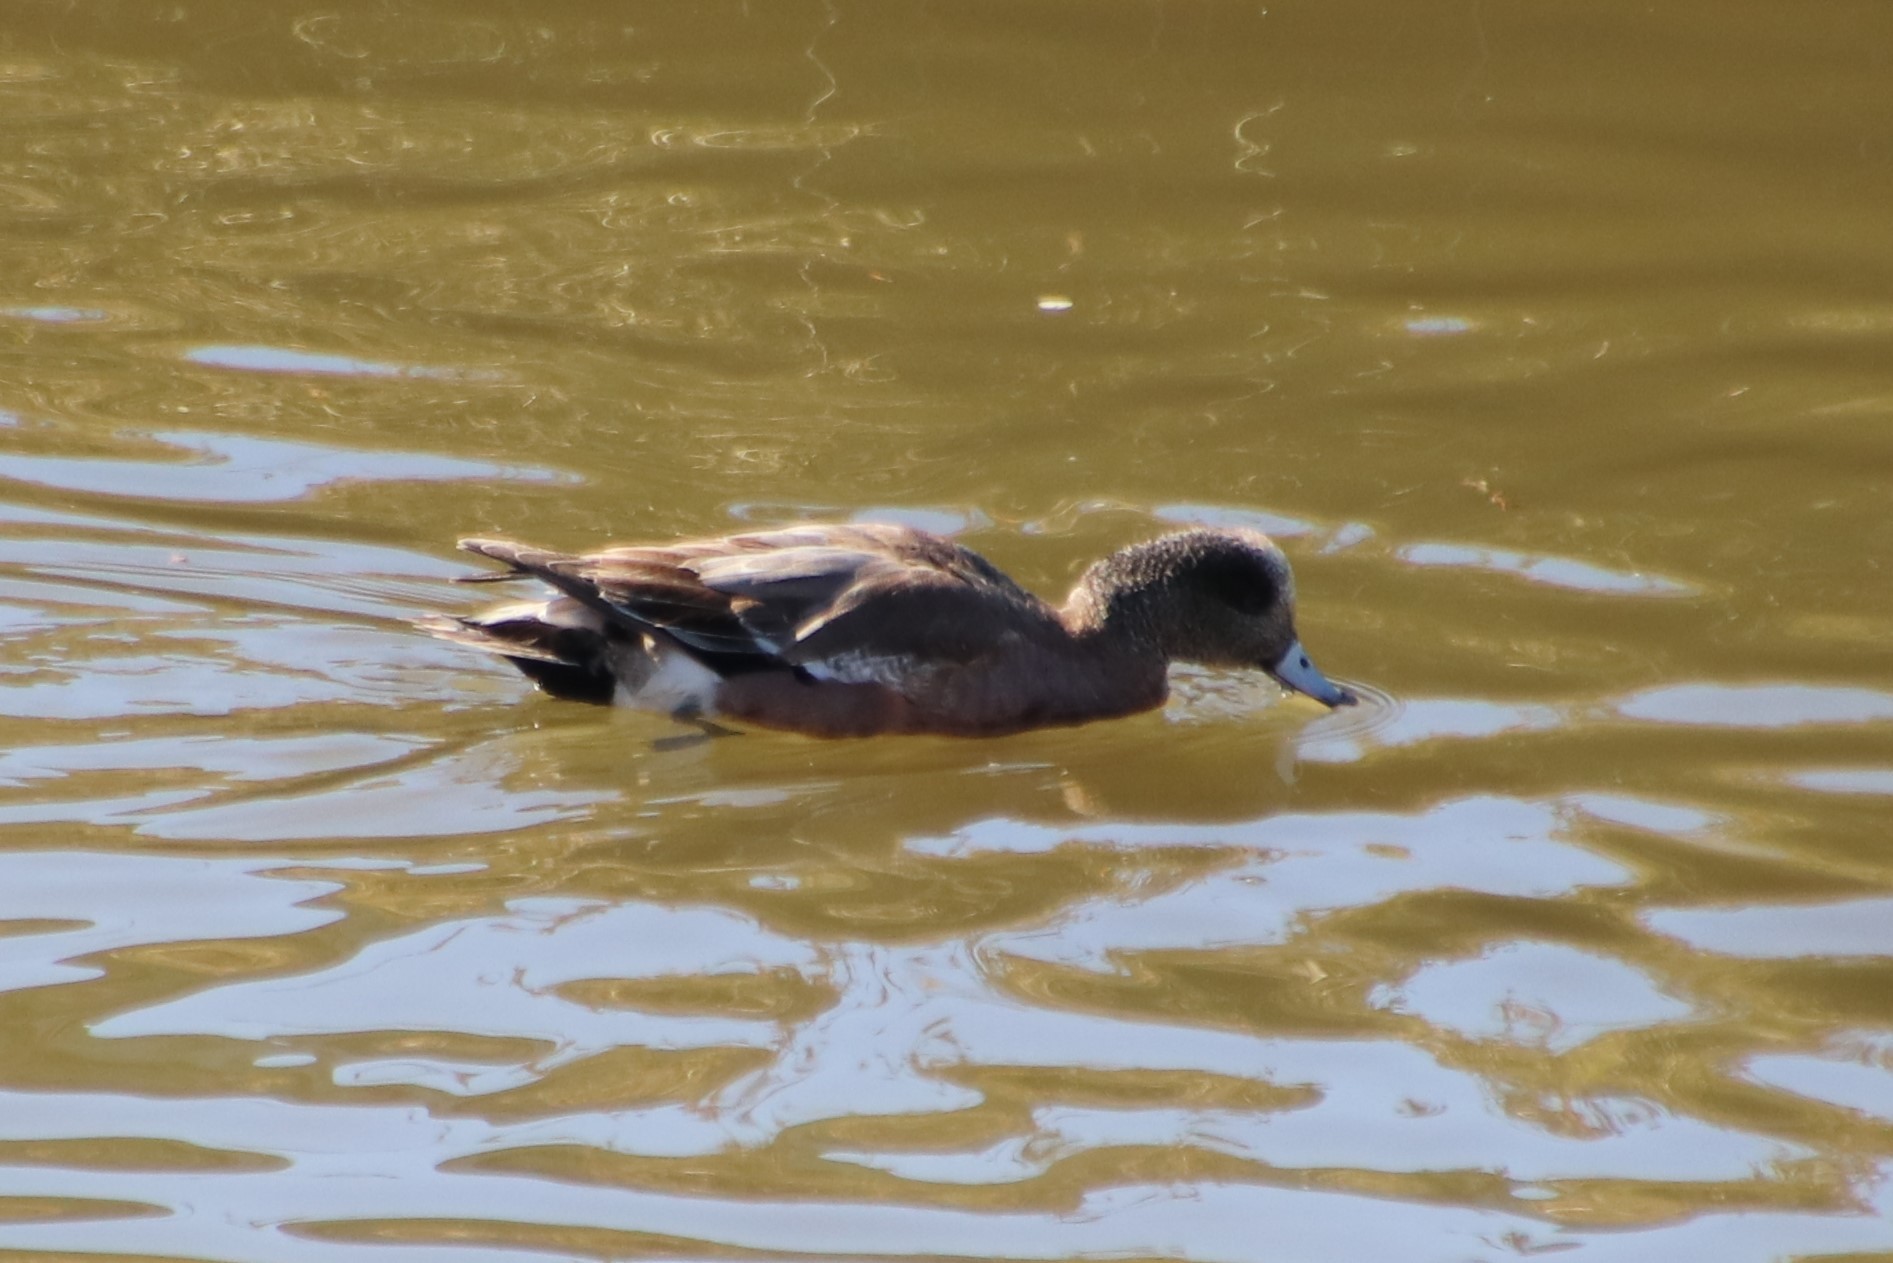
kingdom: Animalia
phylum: Chordata
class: Aves
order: Anseriformes
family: Anatidae
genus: Mareca
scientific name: Mareca americana
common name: American wigeon
